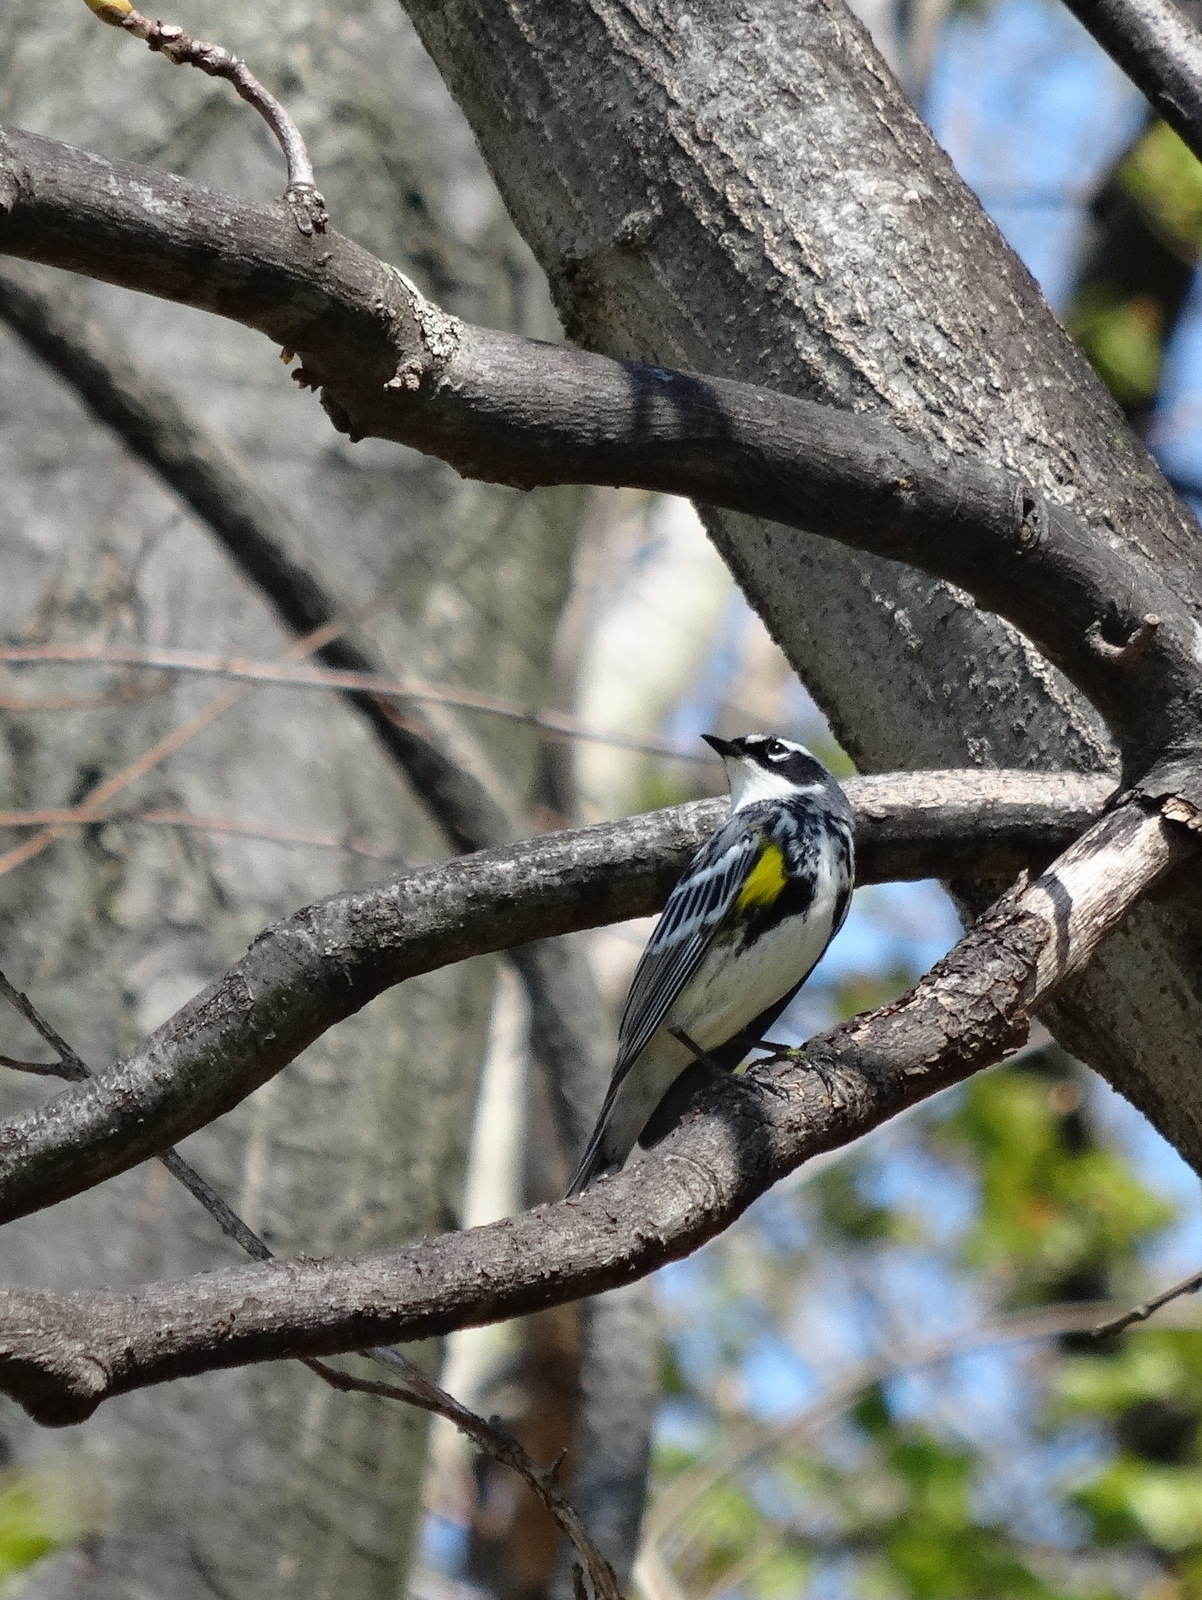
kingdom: Animalia
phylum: Chordata
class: Aves
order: Passeriformes
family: Parulidae
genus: Setophaga
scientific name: Setophaga coronata
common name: Myrtle warbler
